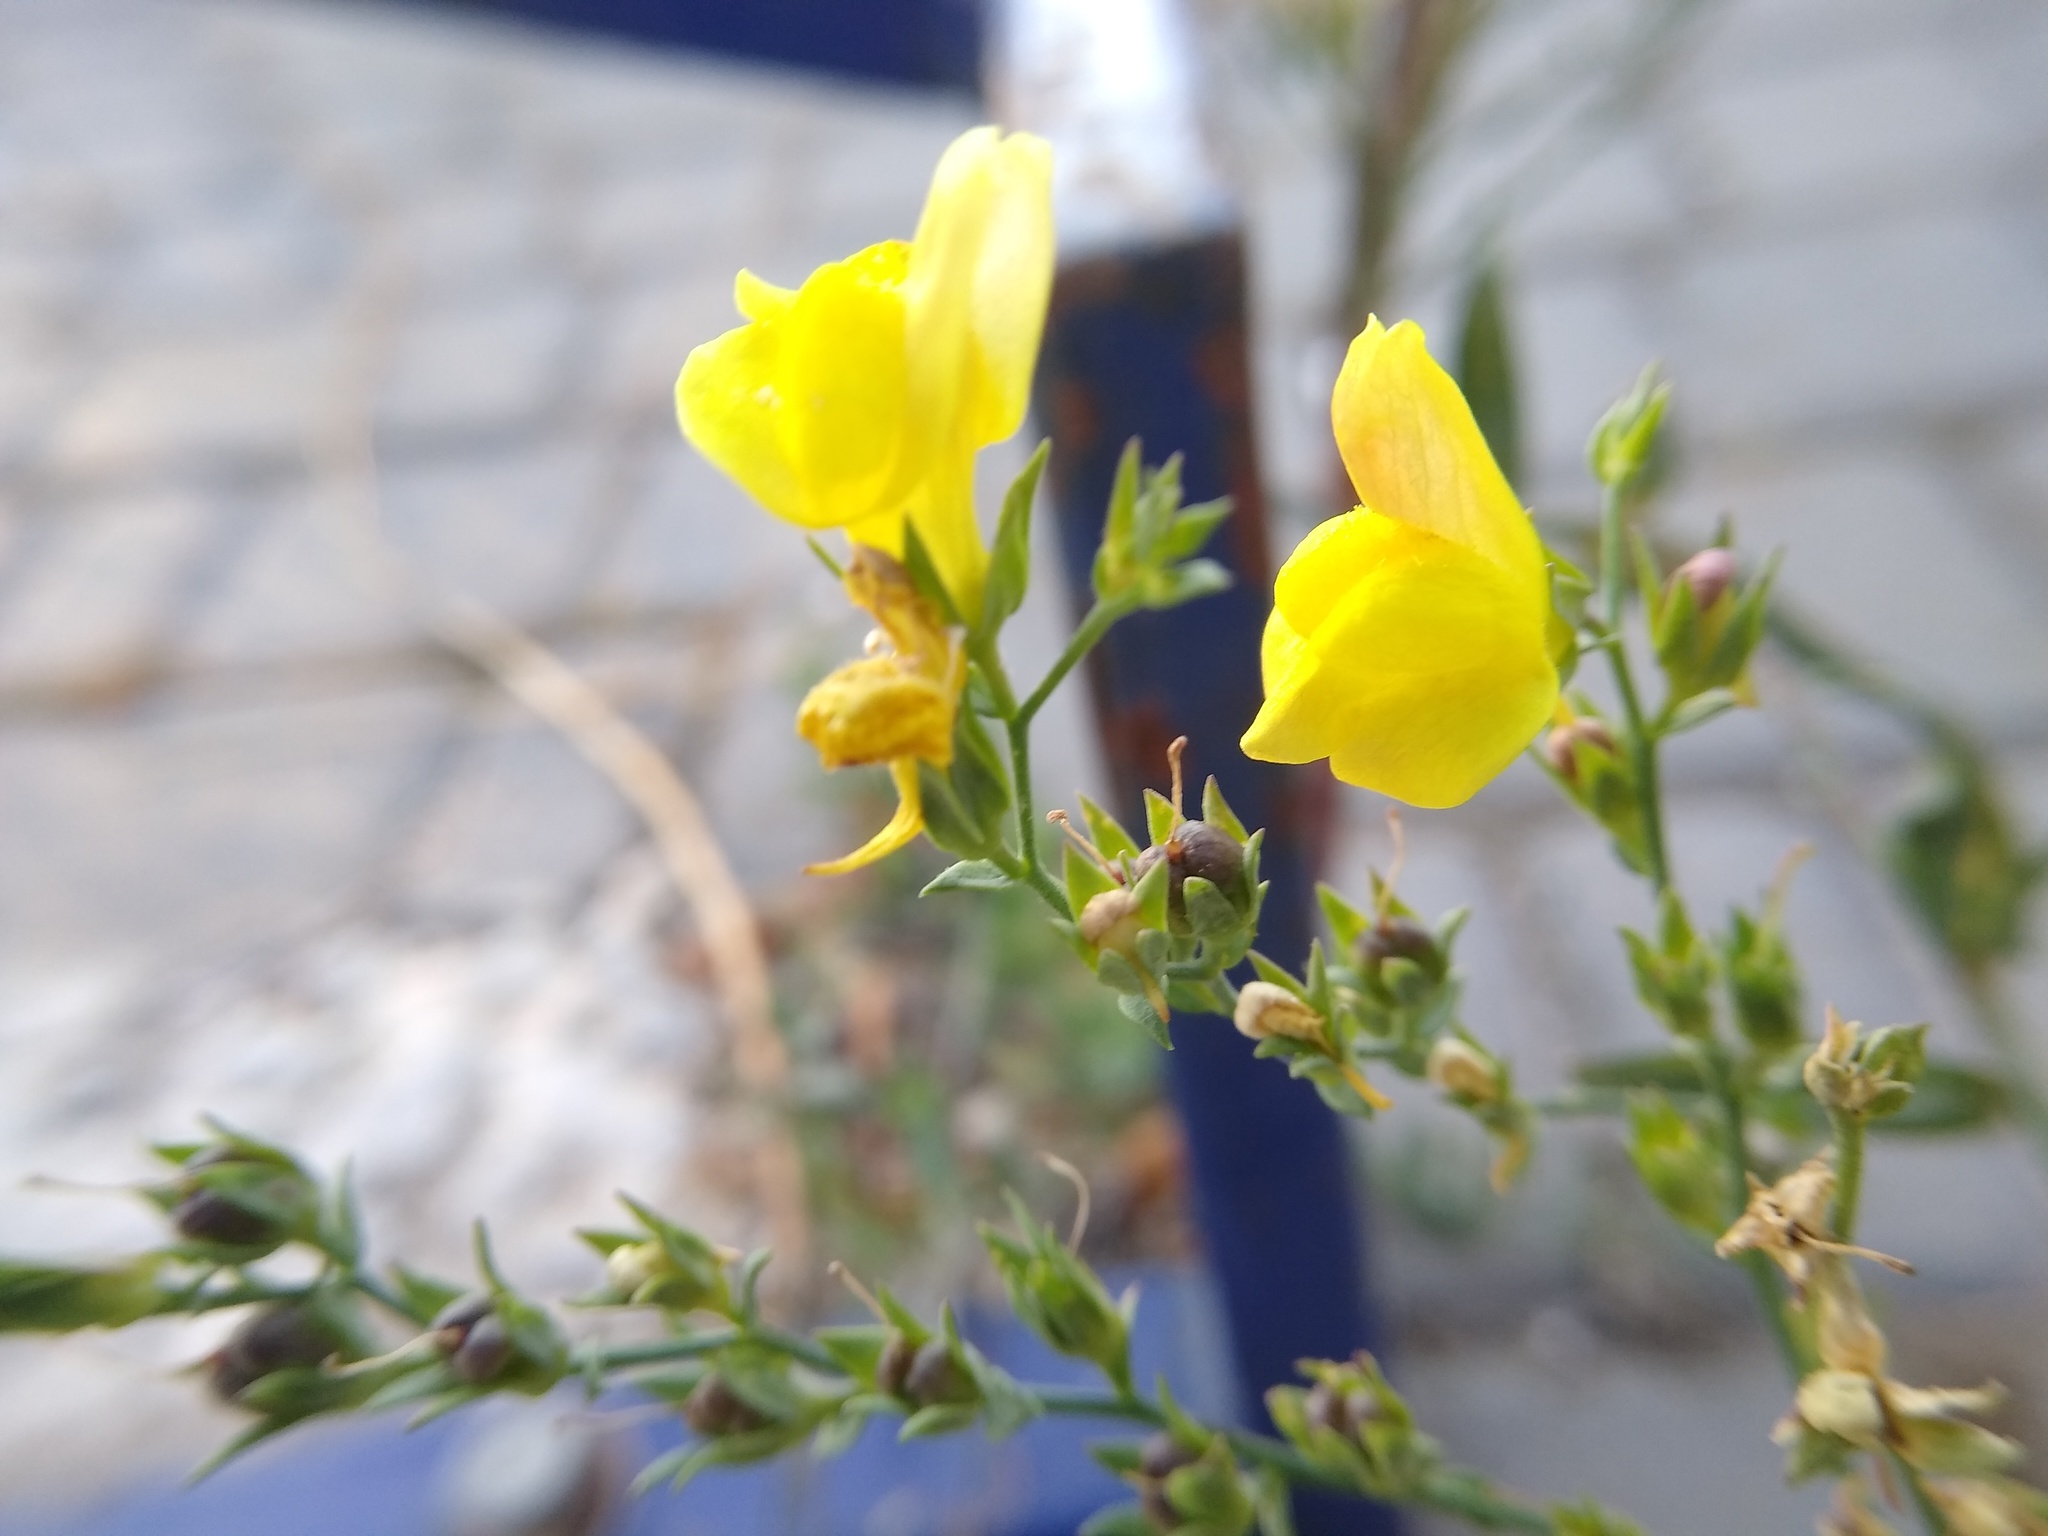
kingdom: Plantae
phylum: Tracheophyta
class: Magnoliopsida
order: Lamiales
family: Plantaginaceae
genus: Linaria
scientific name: Linaria genistifolia
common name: Broomleaf toadflax
